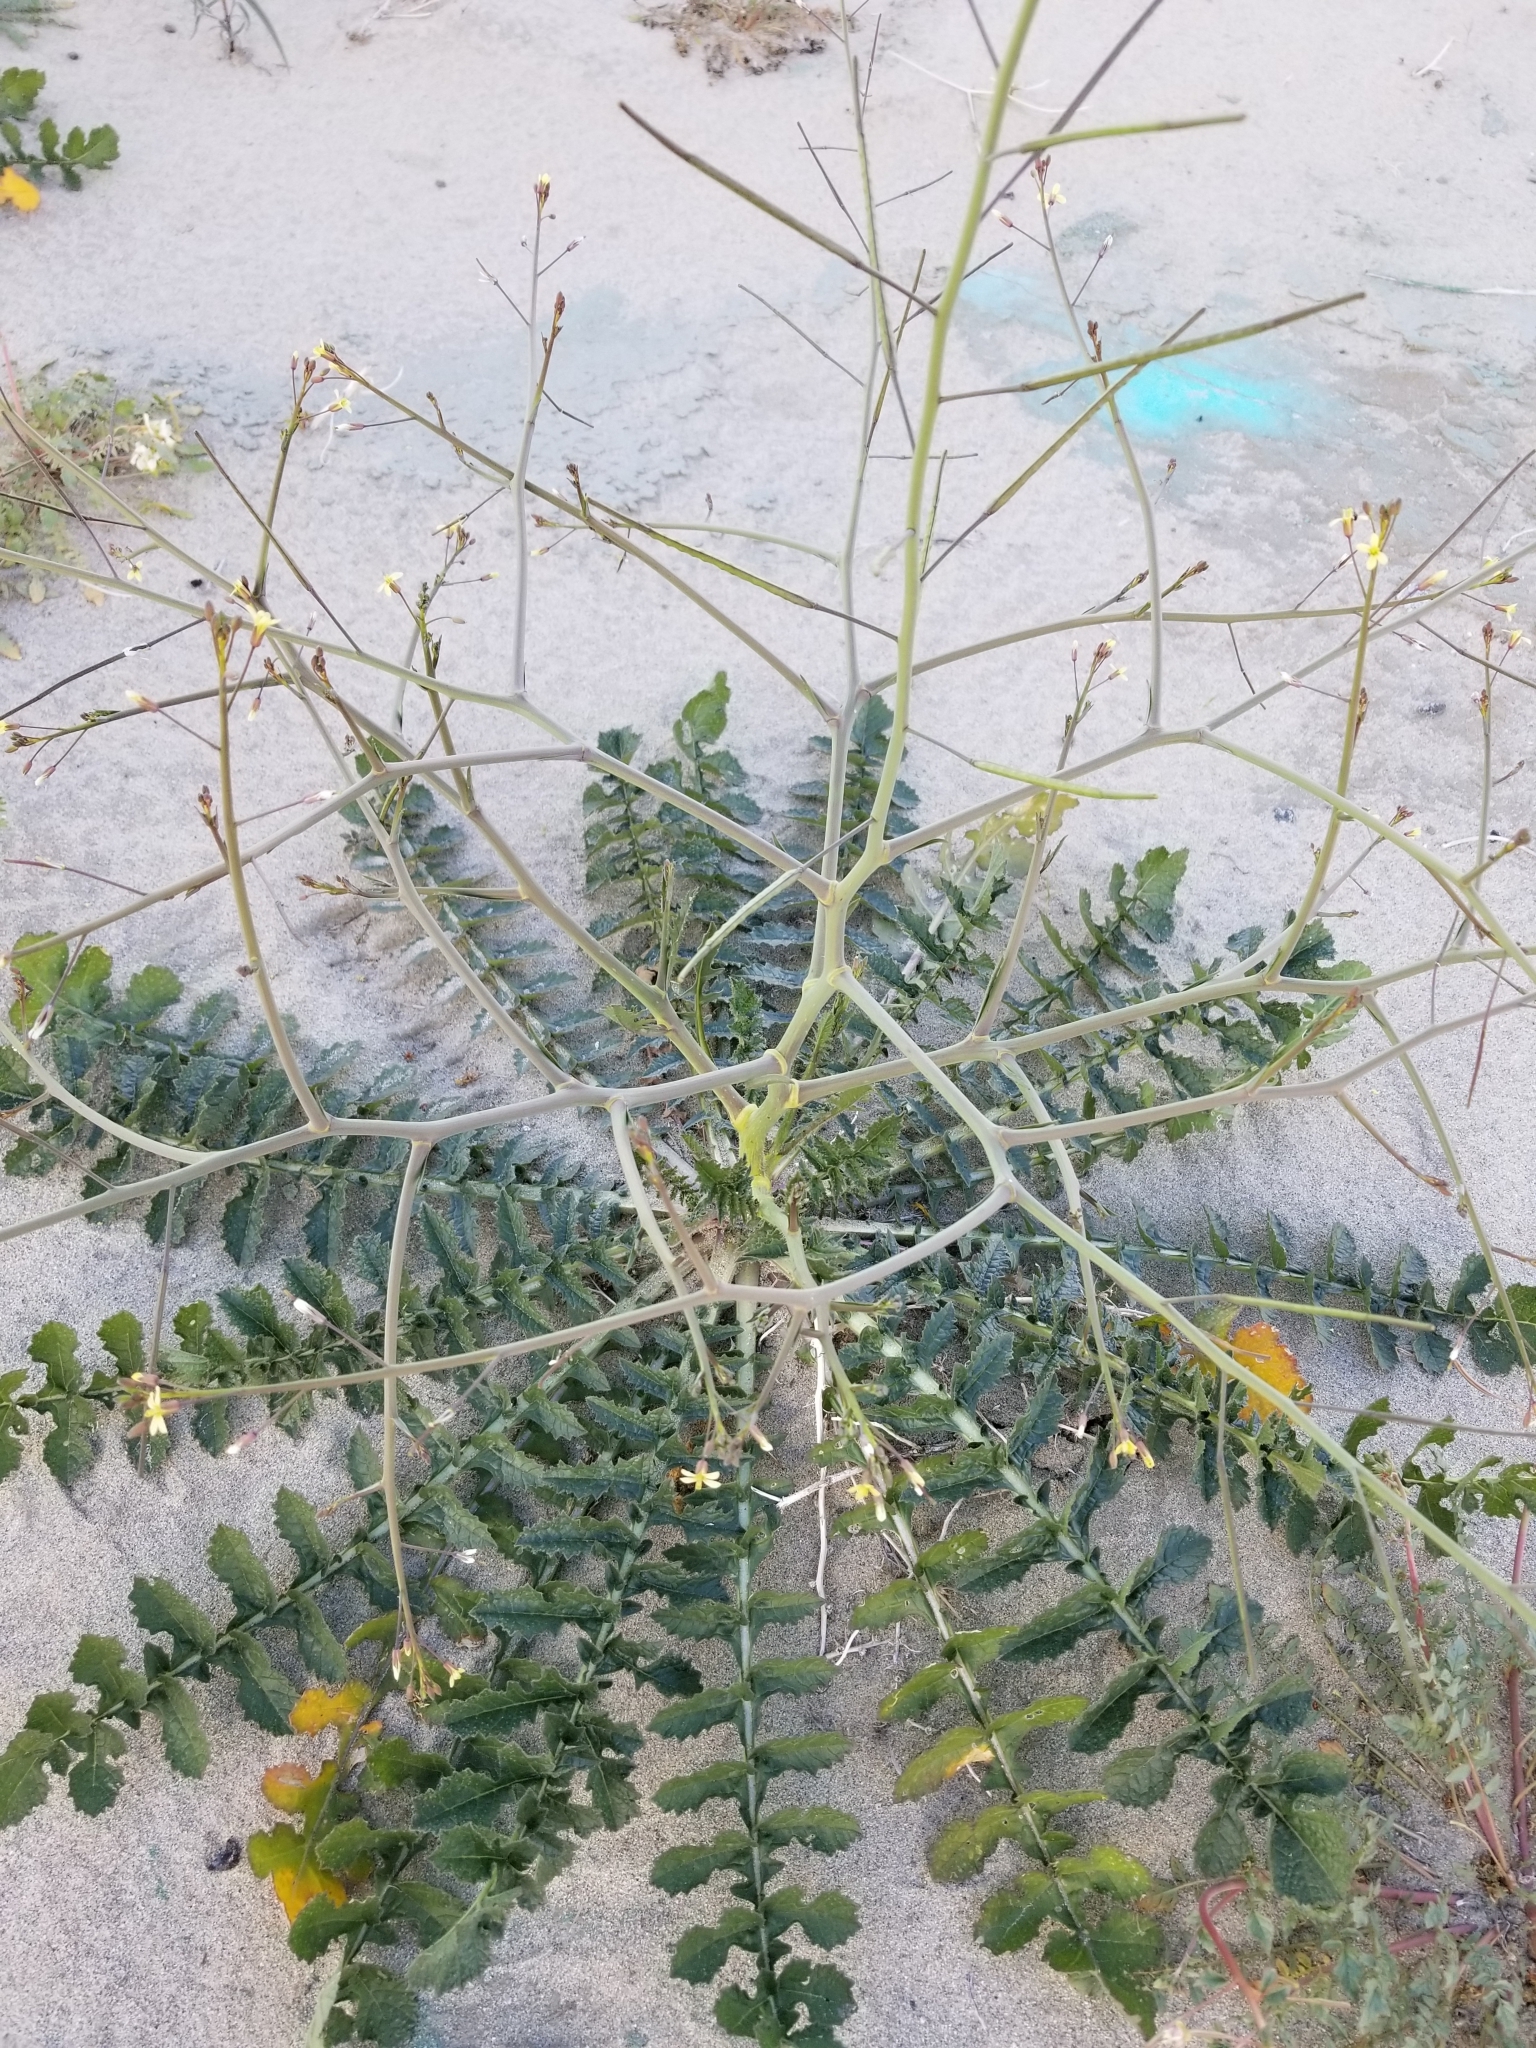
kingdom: Plantae
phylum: Tracheophyta
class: Magnoliopsida
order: Brassicales
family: Brassicaceae
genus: Brassica
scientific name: Brassica tournefortii
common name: Pale cabbage
